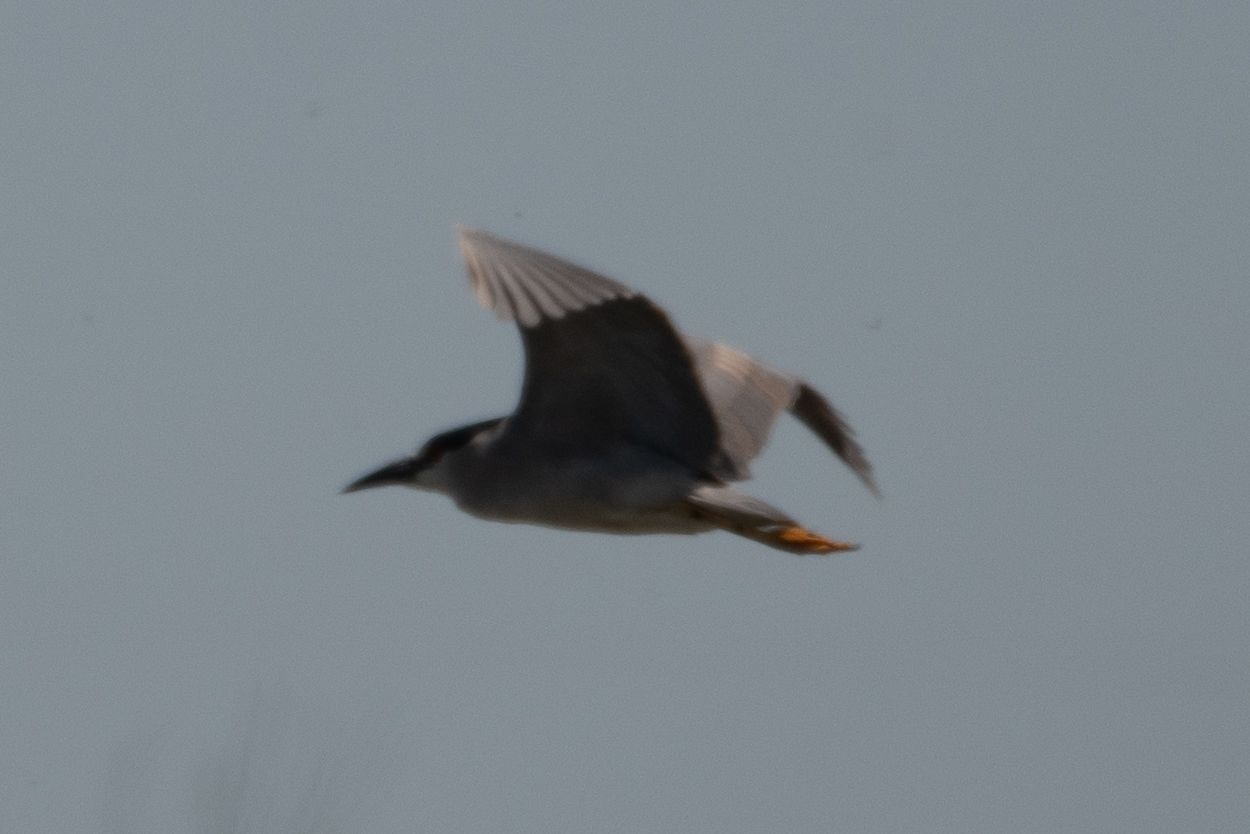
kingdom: Animalia
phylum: Chordata
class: Aves
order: Pelecaniformes
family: Ardeidae
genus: Nycticorax
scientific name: Nycticorax nycticorax
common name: Black-crowned night heron
